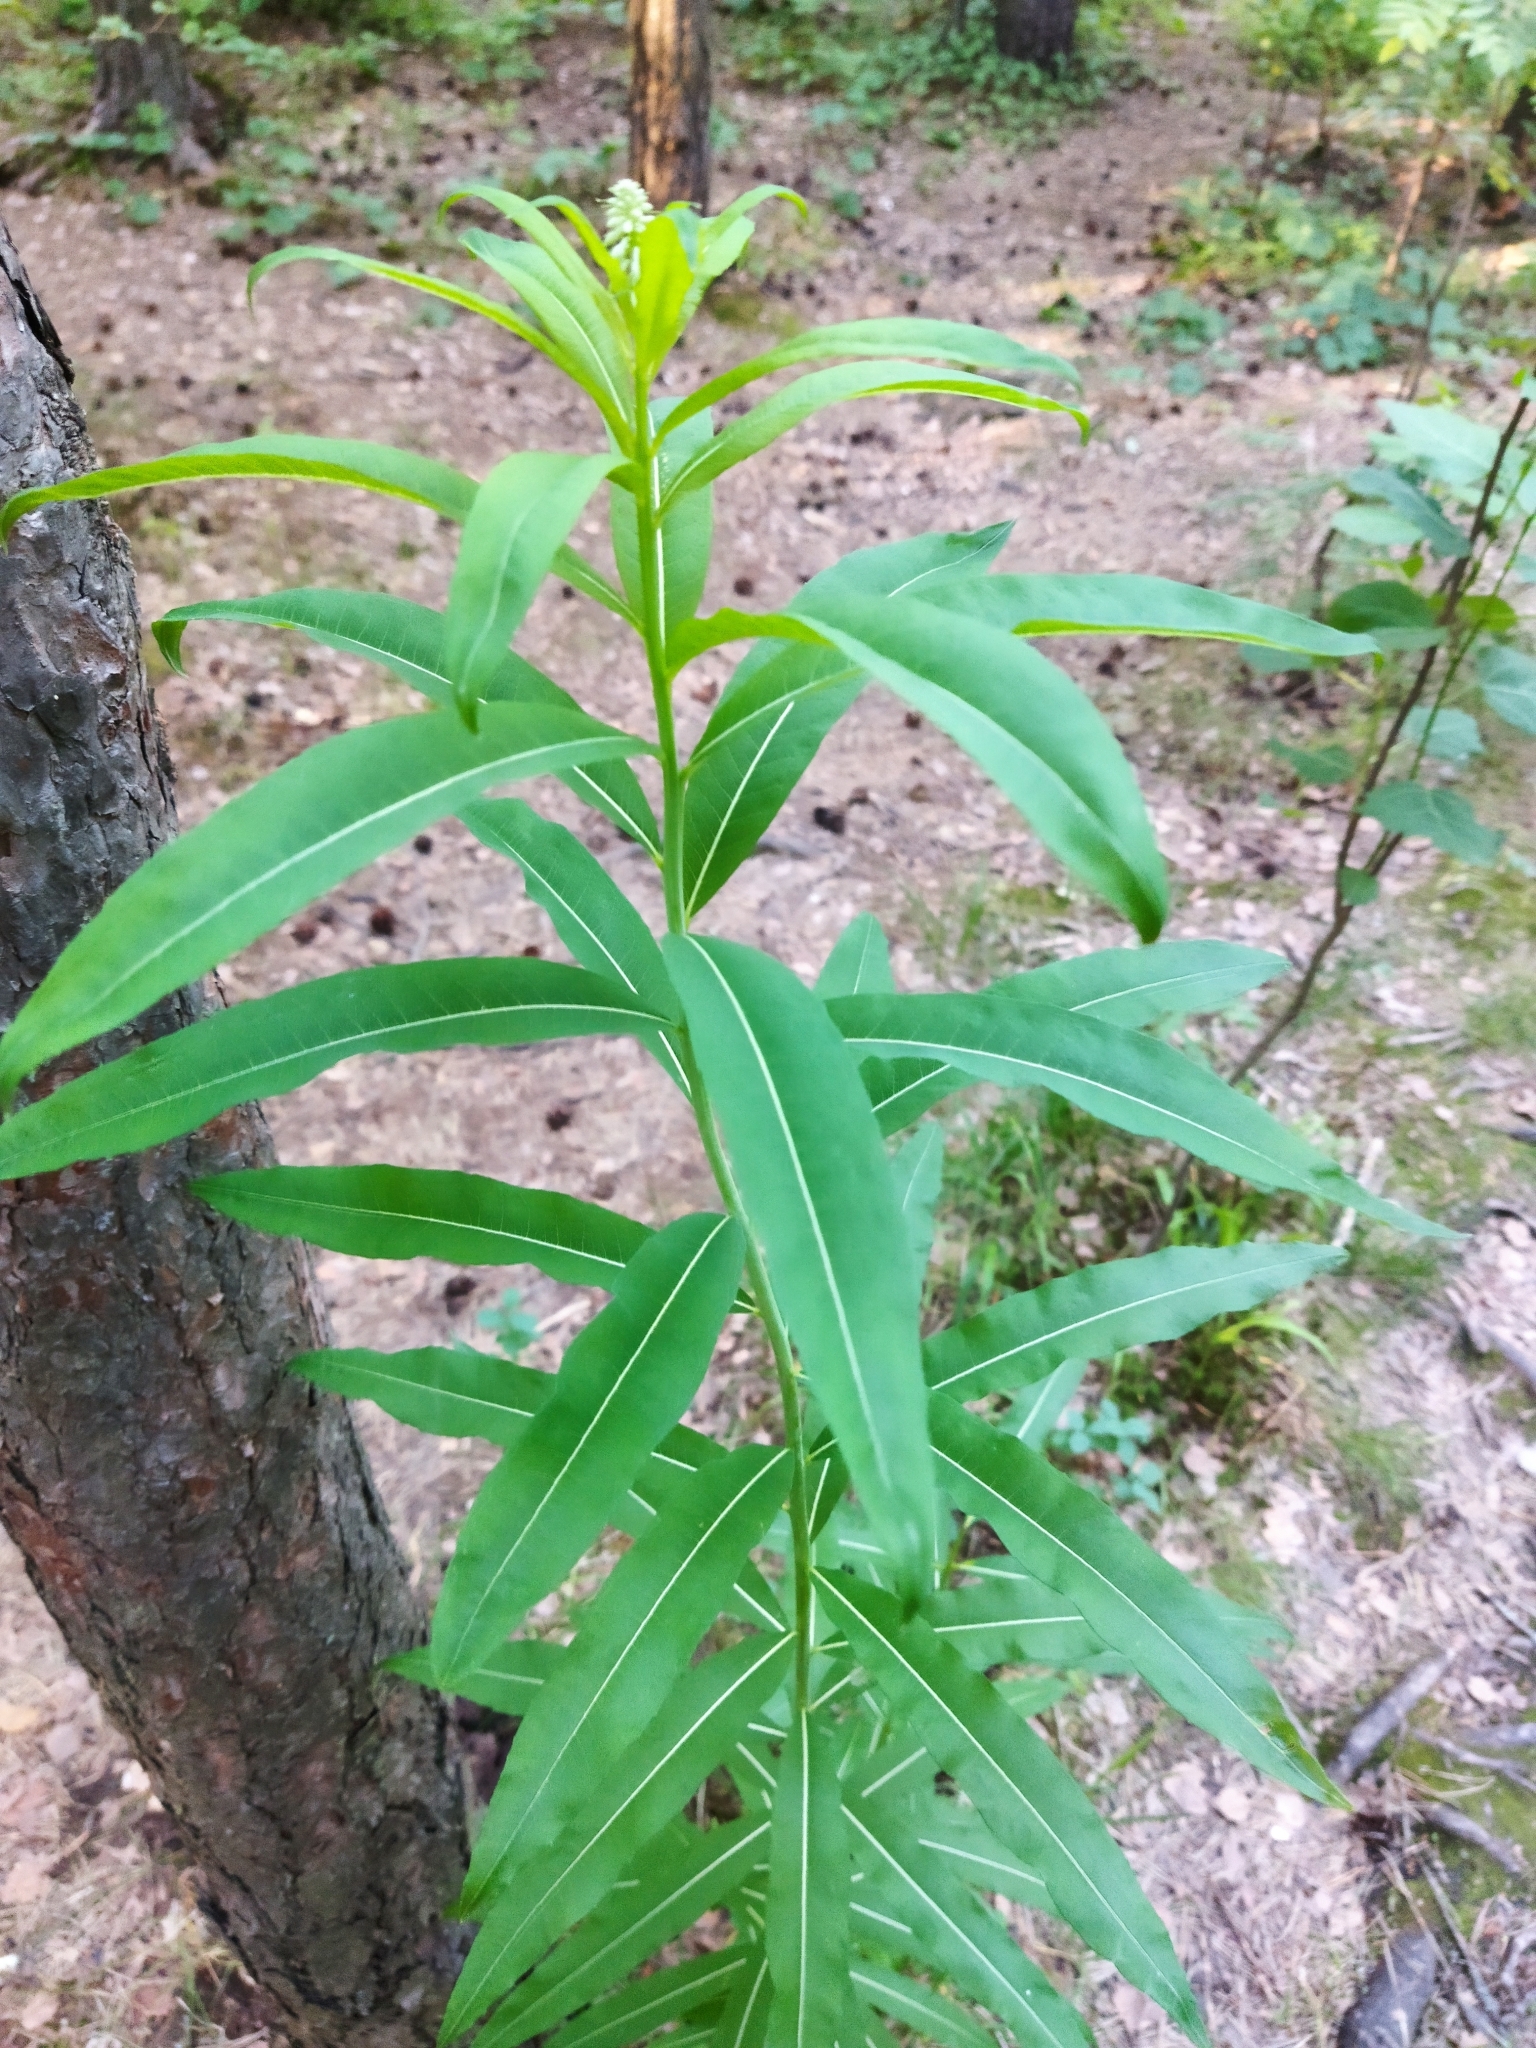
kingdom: Plantae
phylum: Tracheophyta
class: Magnoliopsida
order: Myrtales
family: Onagraceae
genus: Chamaenerion
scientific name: Chamaenerion angustifolium
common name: Fireweed
